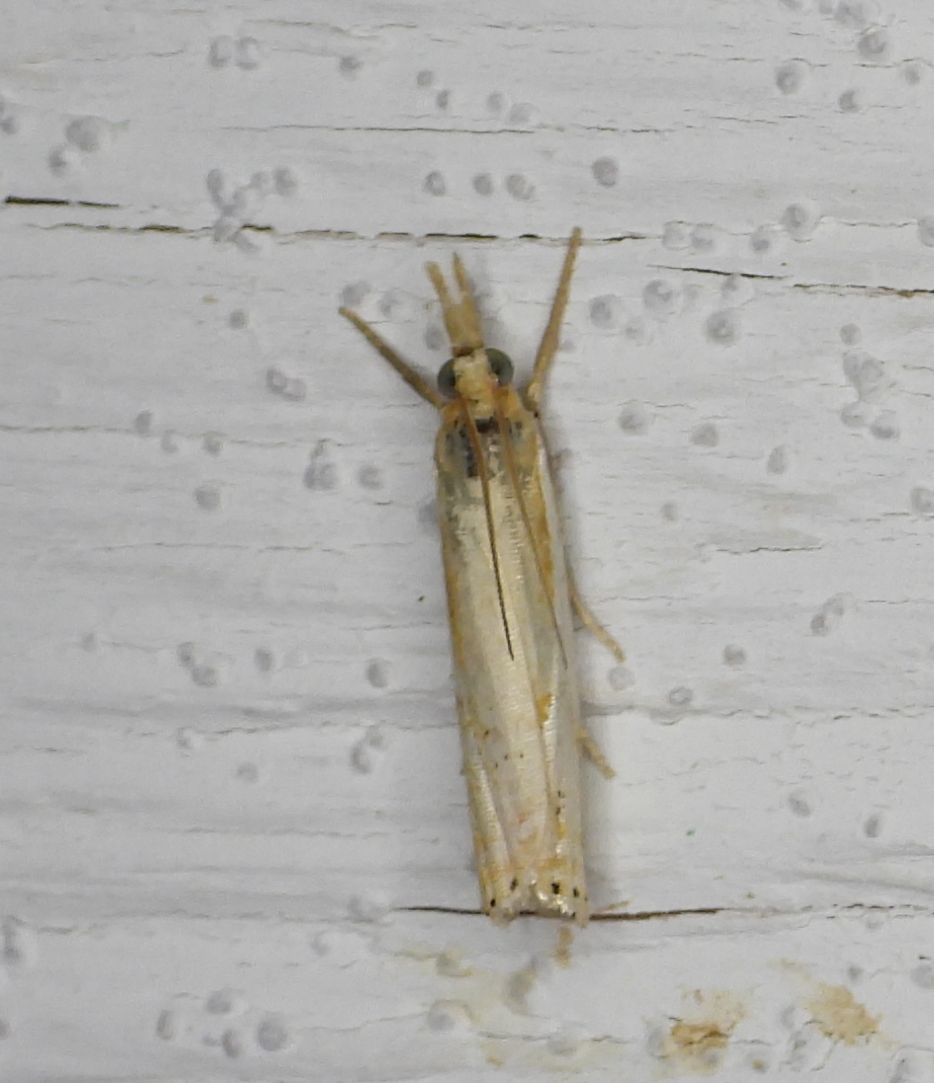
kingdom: Animalia
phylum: Arthropoda
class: Insecta
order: Lepidoptera
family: Crambidae
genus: Crambus
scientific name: Crambus agitatellus
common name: Double-banded grass-veneer
